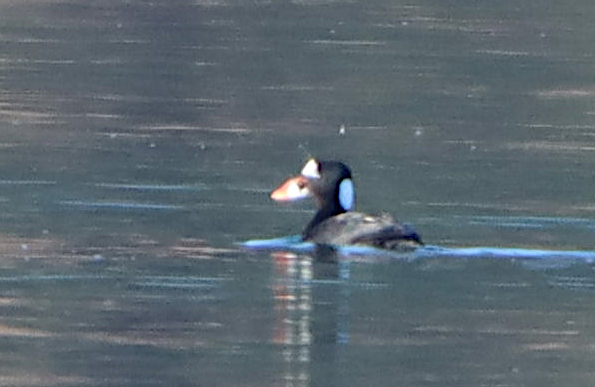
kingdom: Animalia
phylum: Chordata
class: Aves
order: Anseriformes
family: Anatidae
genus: Melanitta
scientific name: Melanitta perspicillata
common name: Surf scoter
